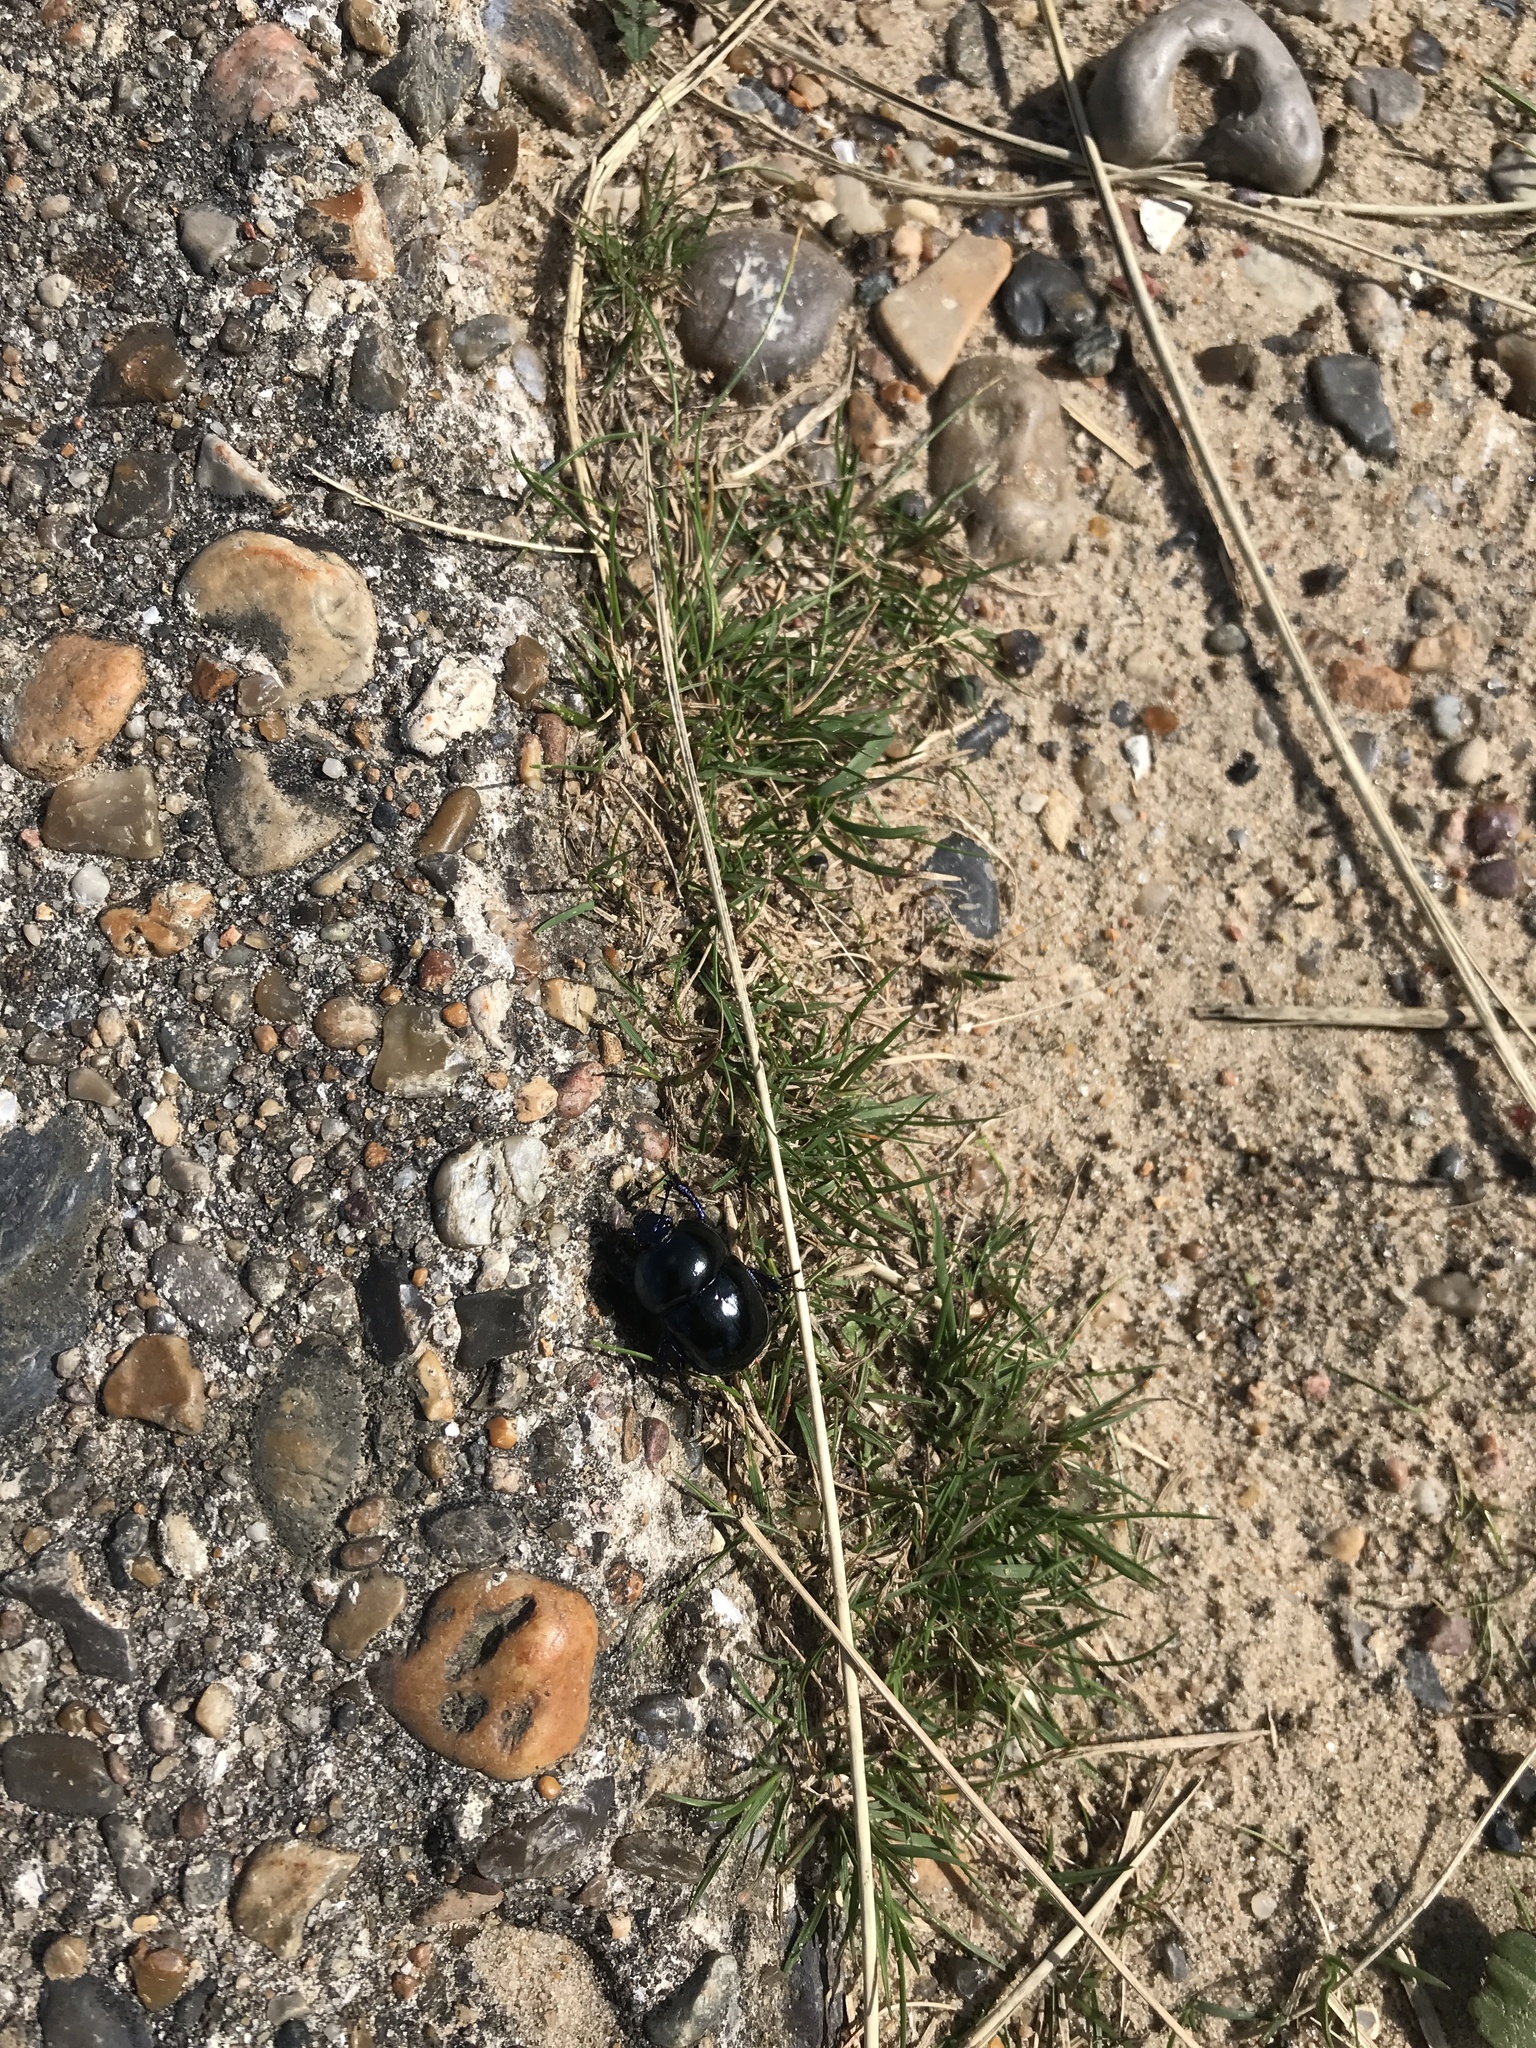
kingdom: Animalia
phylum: Arthropoda
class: Insecta
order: Coleoptera
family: Geotrupidae
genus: Trypocopris
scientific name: Trypocopris vernalis
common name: Spring dumbledor
